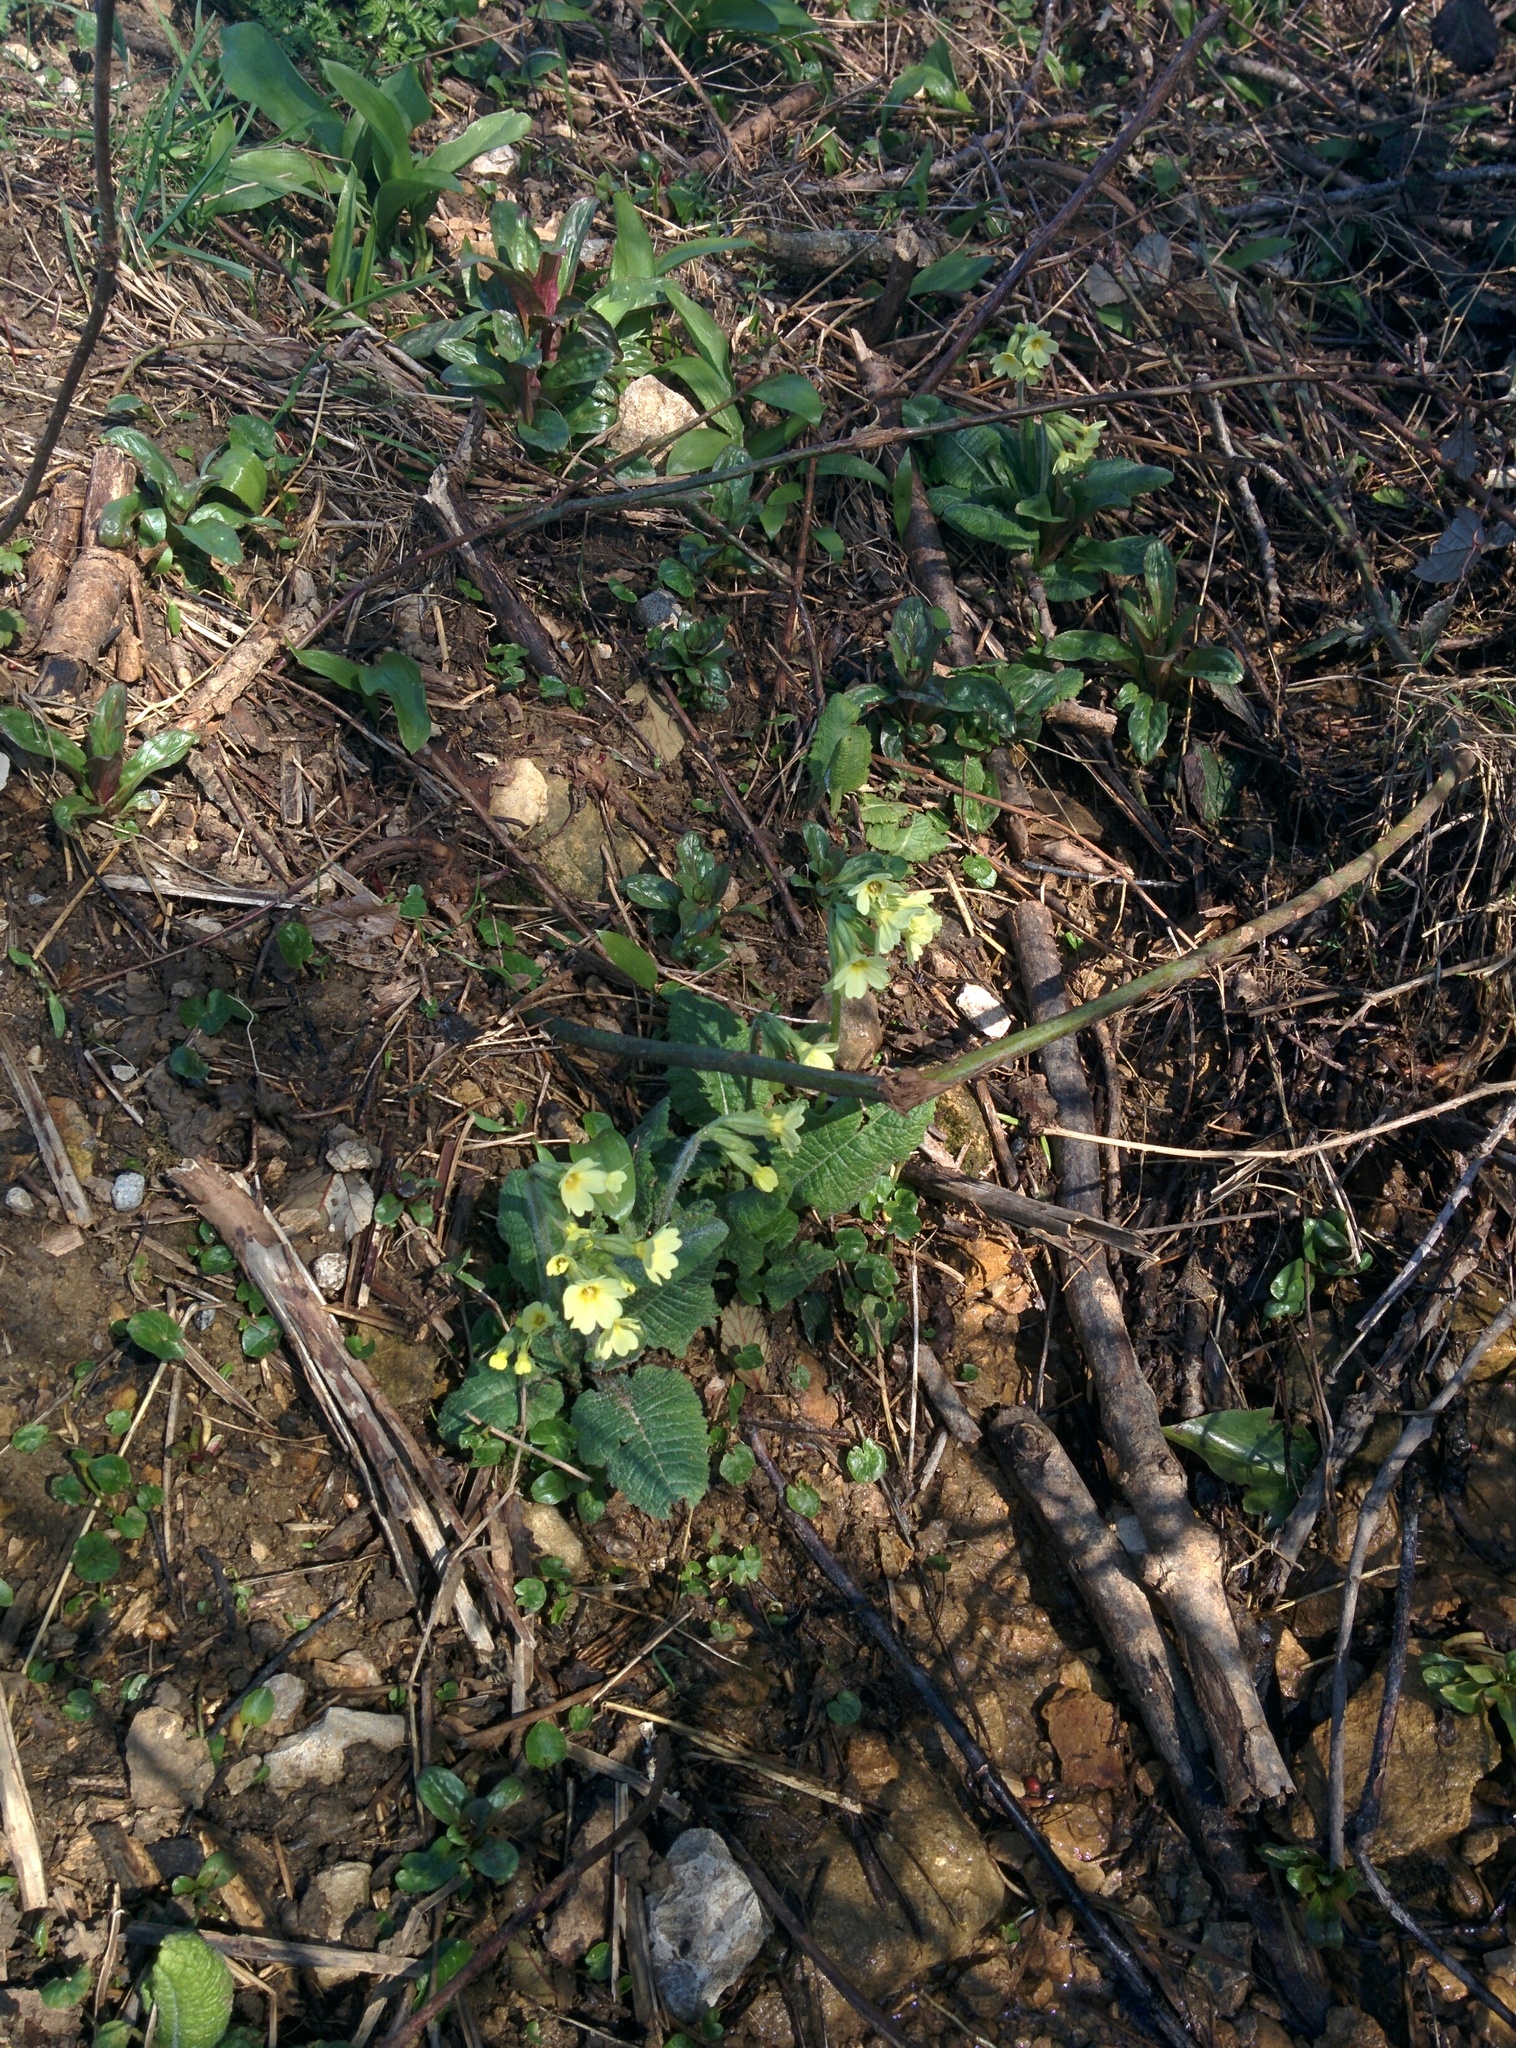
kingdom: Plantae
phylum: Tracheophyta
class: Magnoliopsida
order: Ericales
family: Primulaceae
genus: Primula
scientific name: Primula elatior
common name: Oxlip
